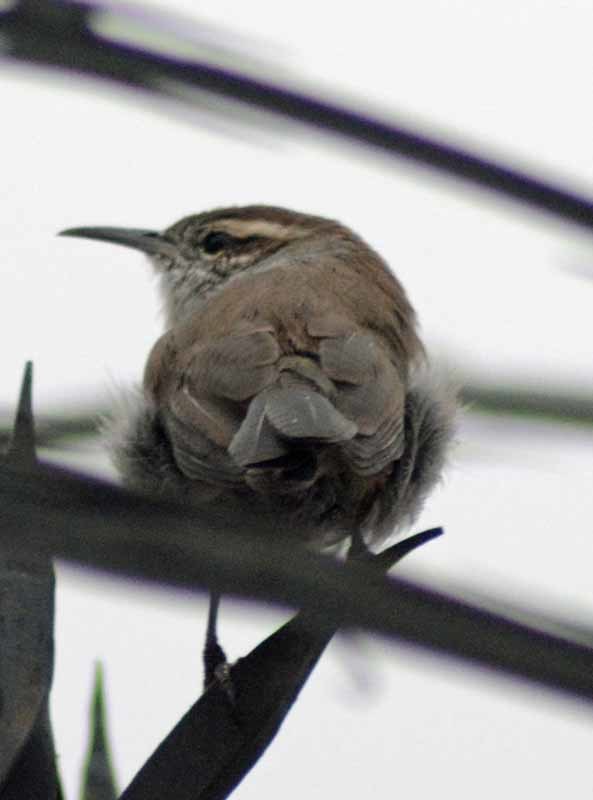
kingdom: Animalia
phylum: Chordata
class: Aves
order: Passeriformes
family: Troglodytidae
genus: Thryomanes
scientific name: Thryomanes bewickii
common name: Bewick's wren
